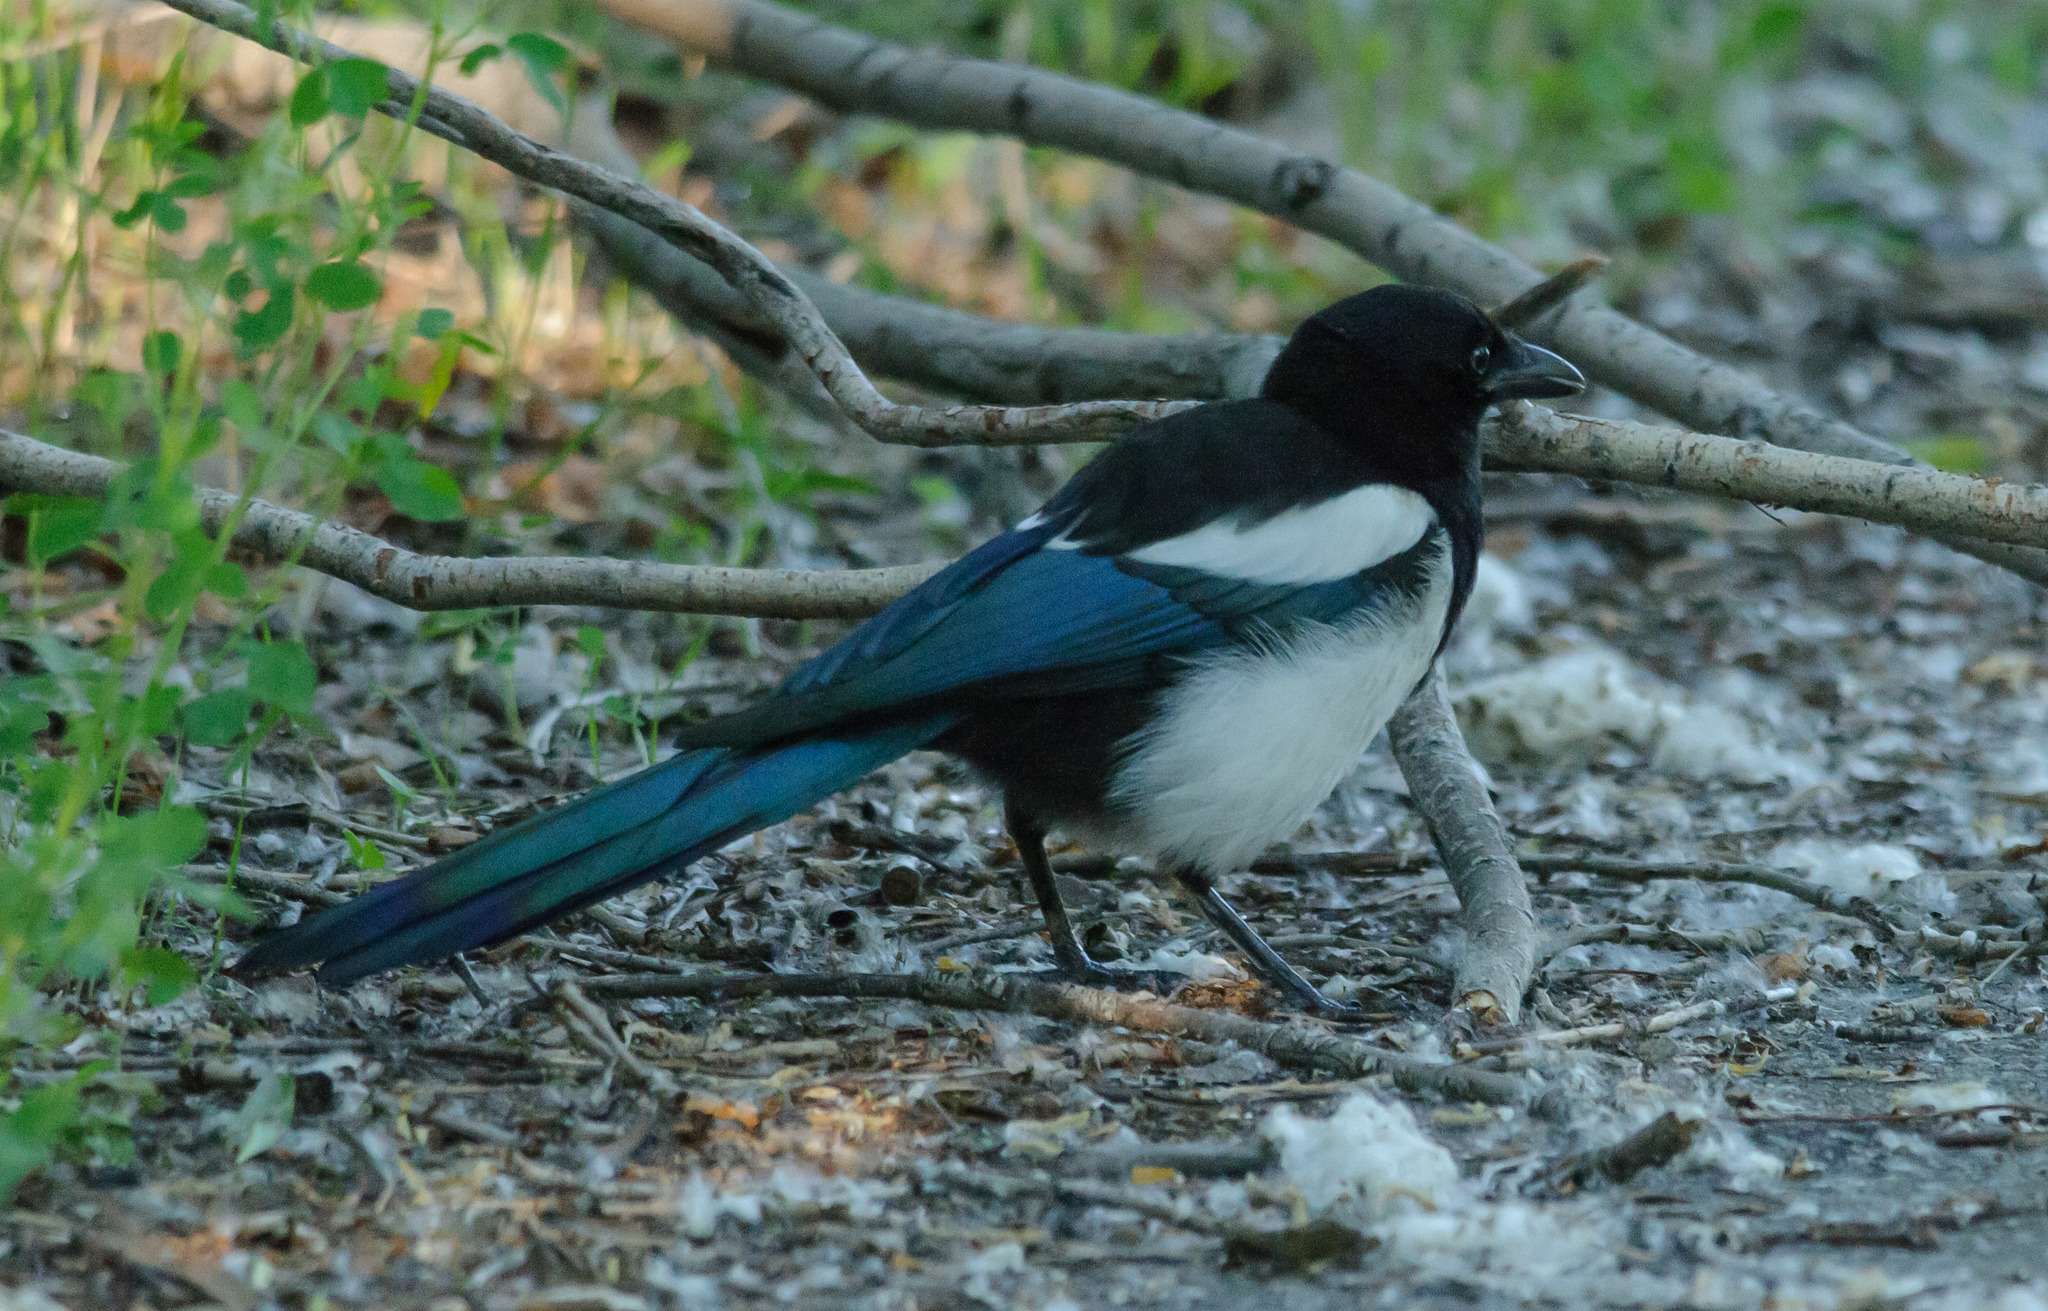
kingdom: Animalia
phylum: Chordata
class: Aves
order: Passeriformes
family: Corvidae
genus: Pica
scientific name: Pica hudsonia
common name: Black-billed magpie
